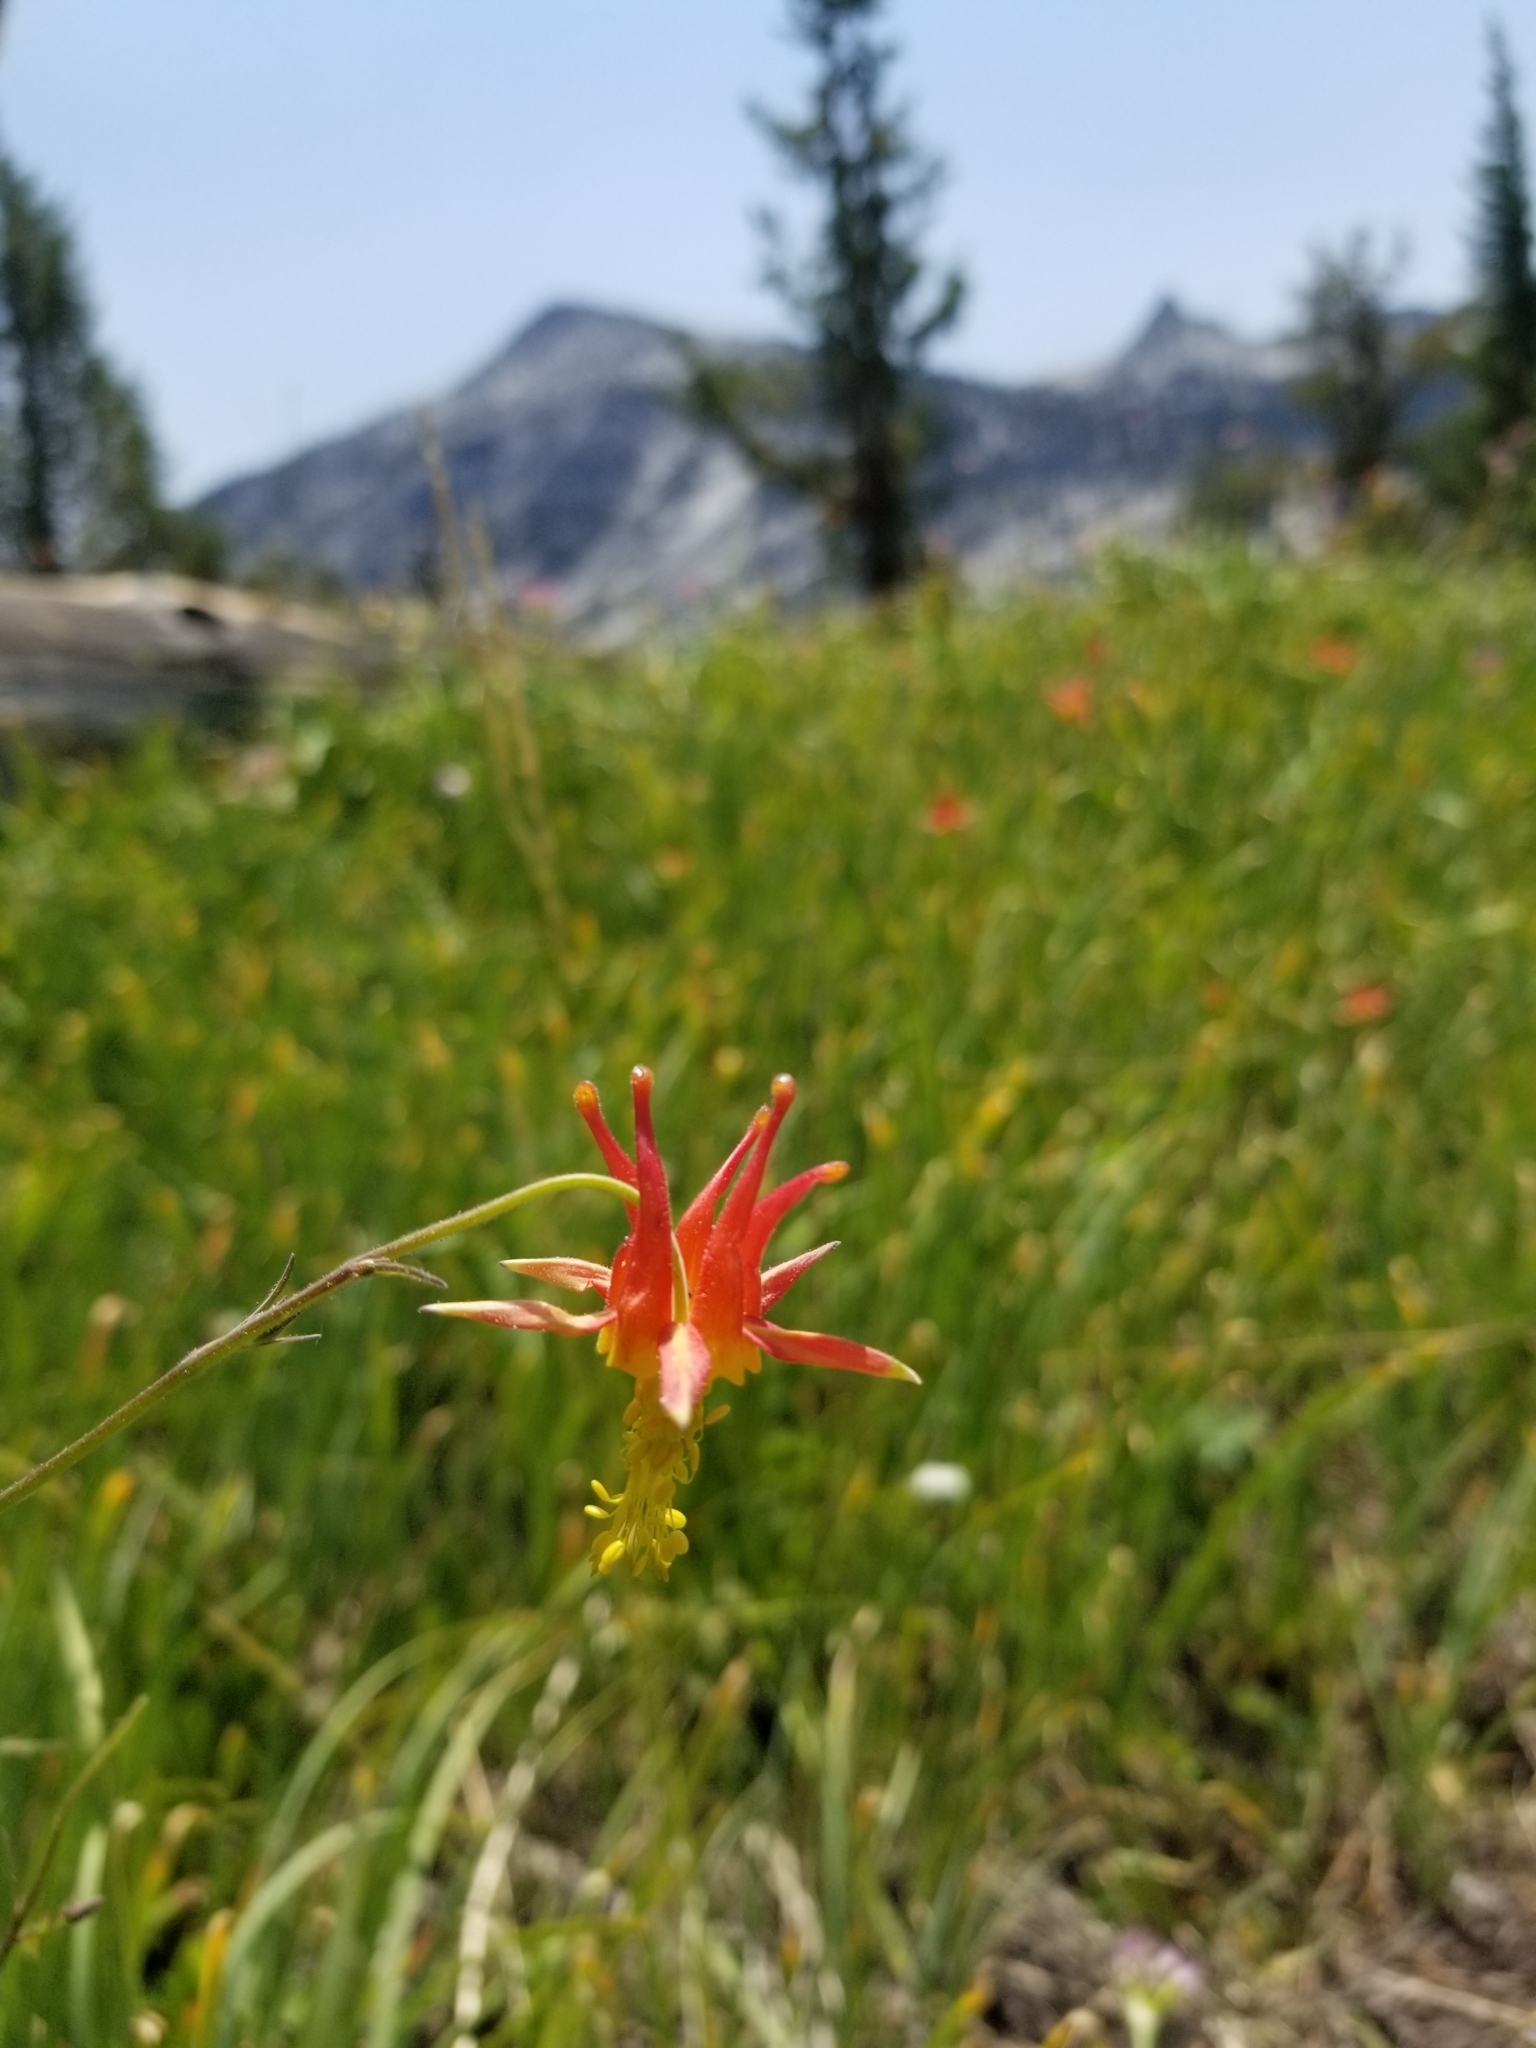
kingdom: Plantae
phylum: Tracheophyta
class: Magnoliopsida
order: Ranunculales
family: Ranunculaceae
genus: Aquilegia
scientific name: Aquilegia formosa
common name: Sitka columbine
